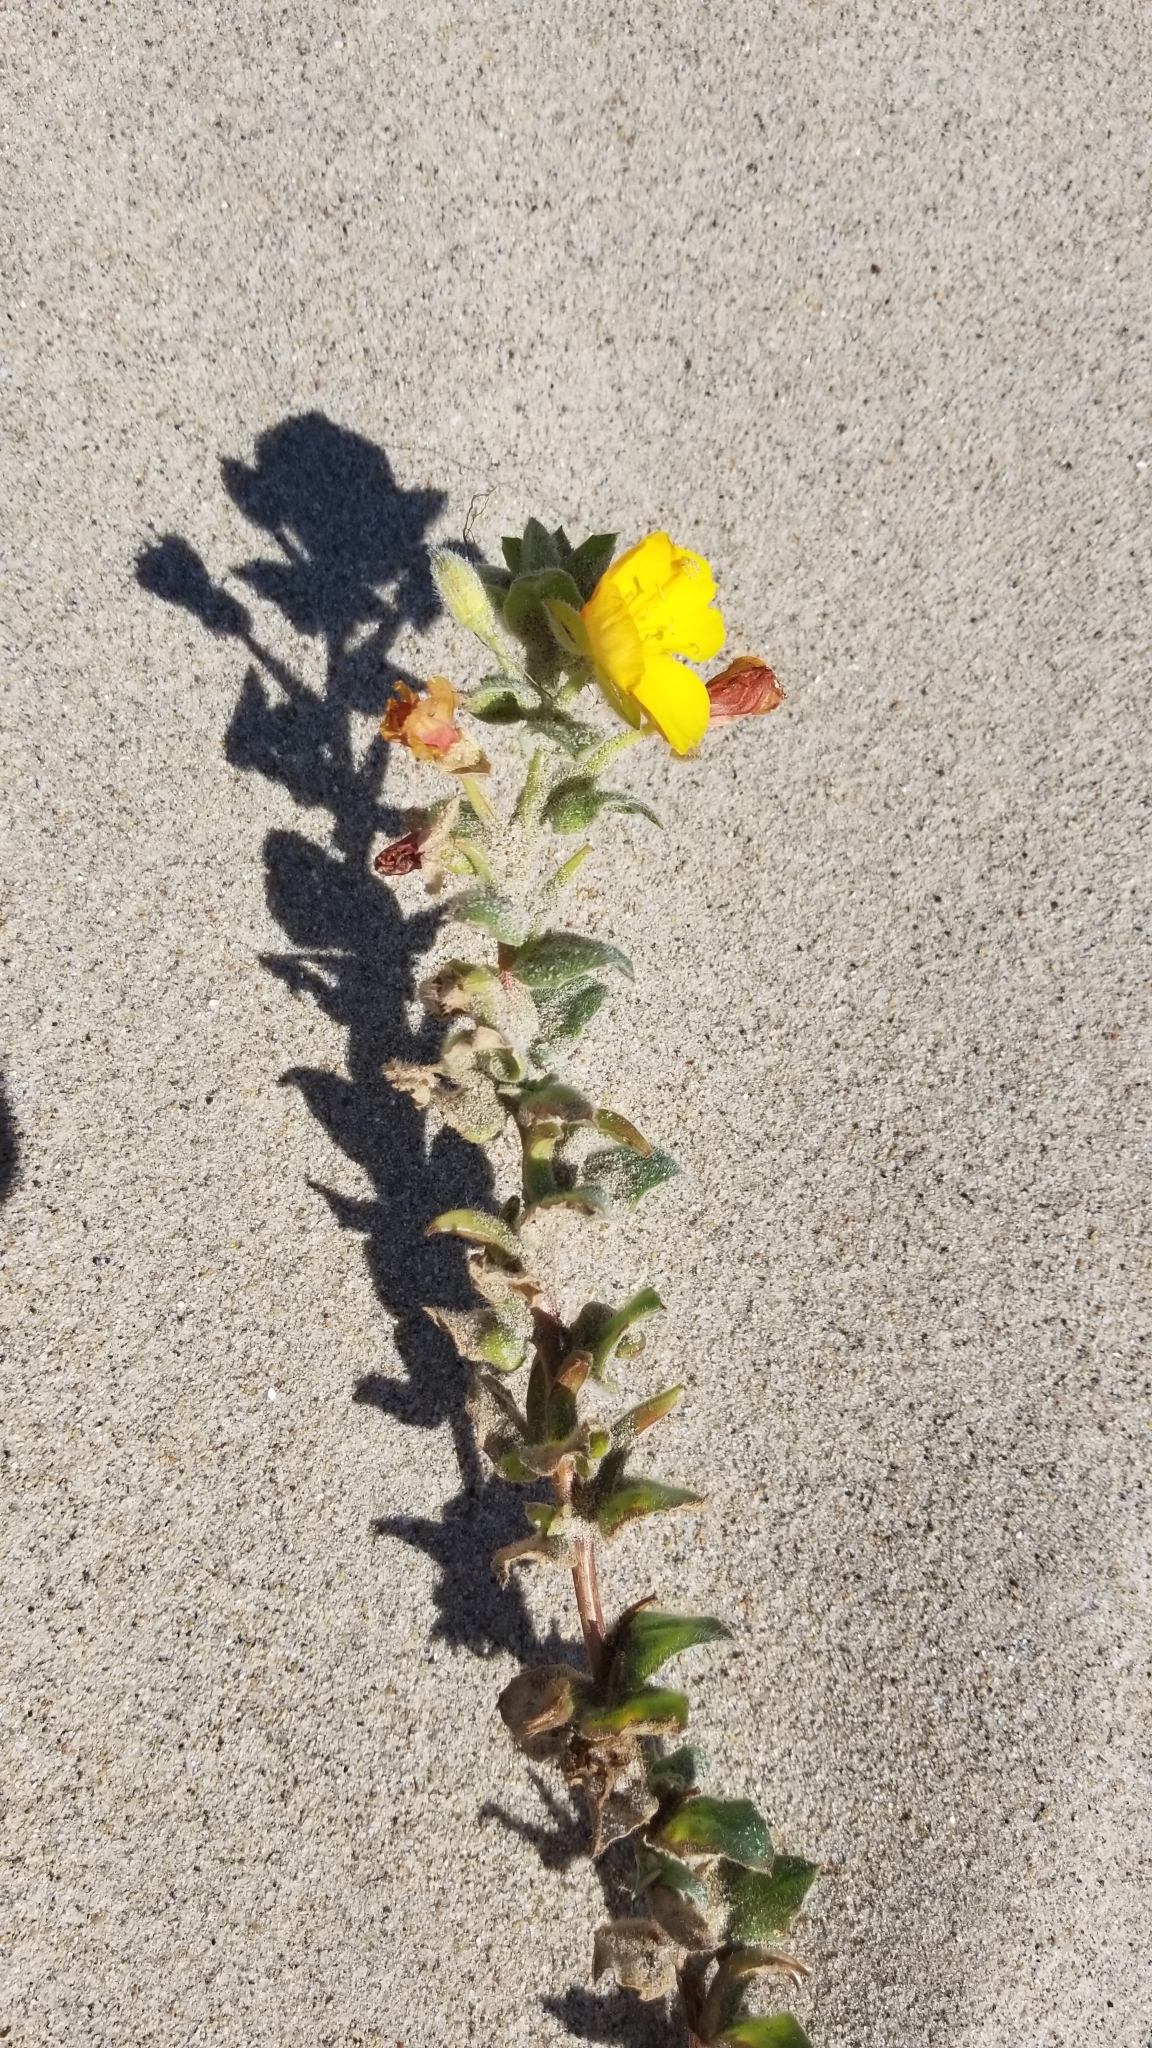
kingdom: Plantae
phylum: Tracheophyta
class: Magnoliopsida
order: Myrtales
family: Onagraceae
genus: Camissoniopsis
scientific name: Camissoniopsis cheiranthifolia
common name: Beach suncup
